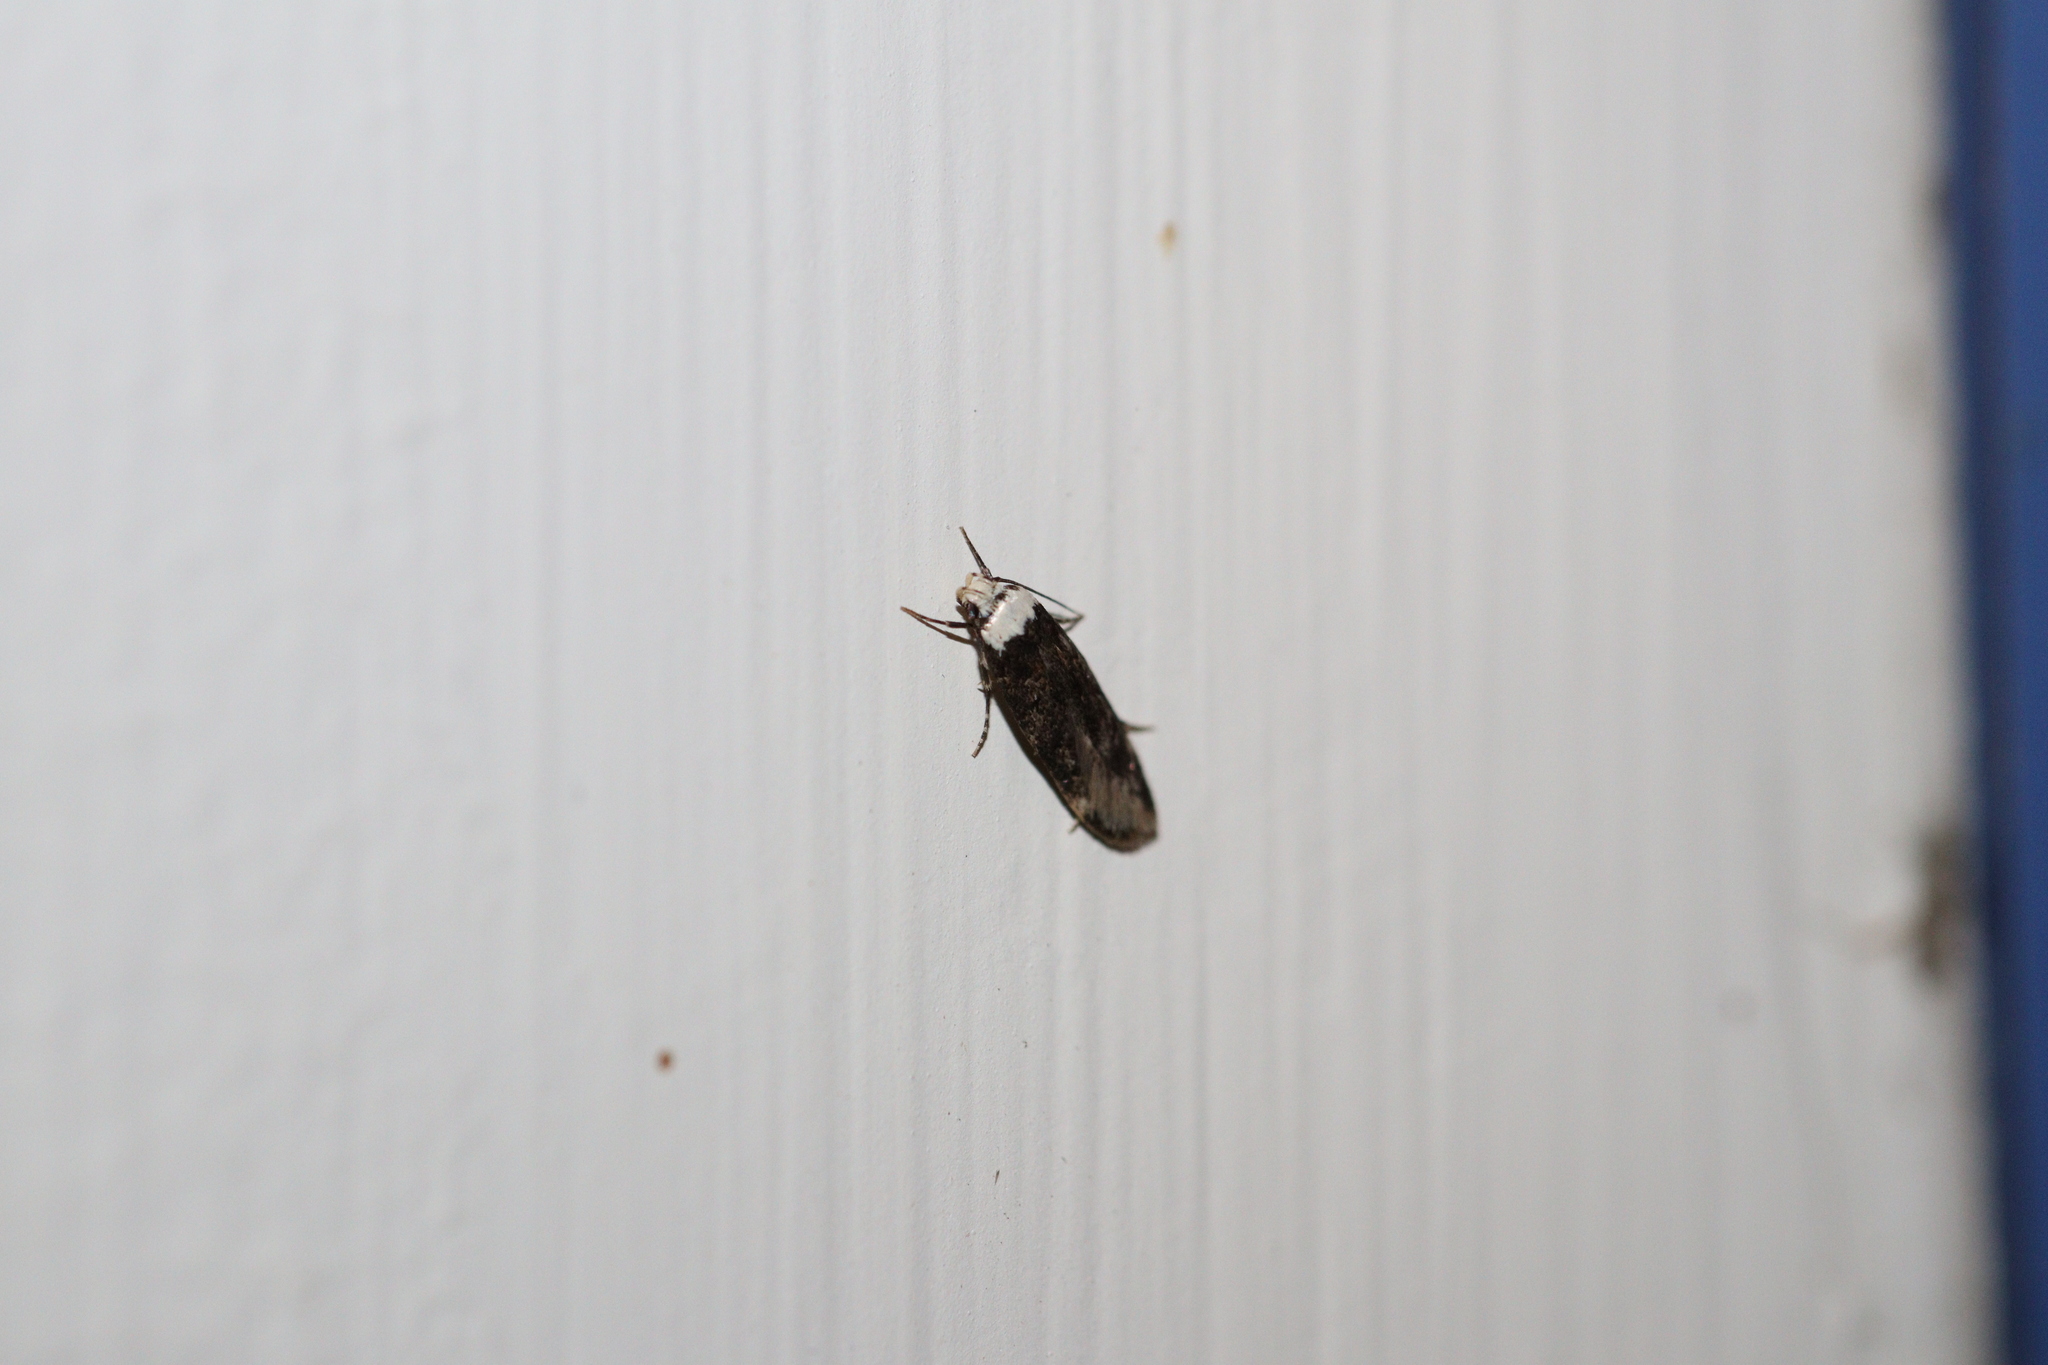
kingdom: Animalia
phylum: Arthropoda
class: Insecta
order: Lepidoptera
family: Oecophoridae
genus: Endrosis
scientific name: Endrosis sarcitrella
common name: White-shouldered house moth
